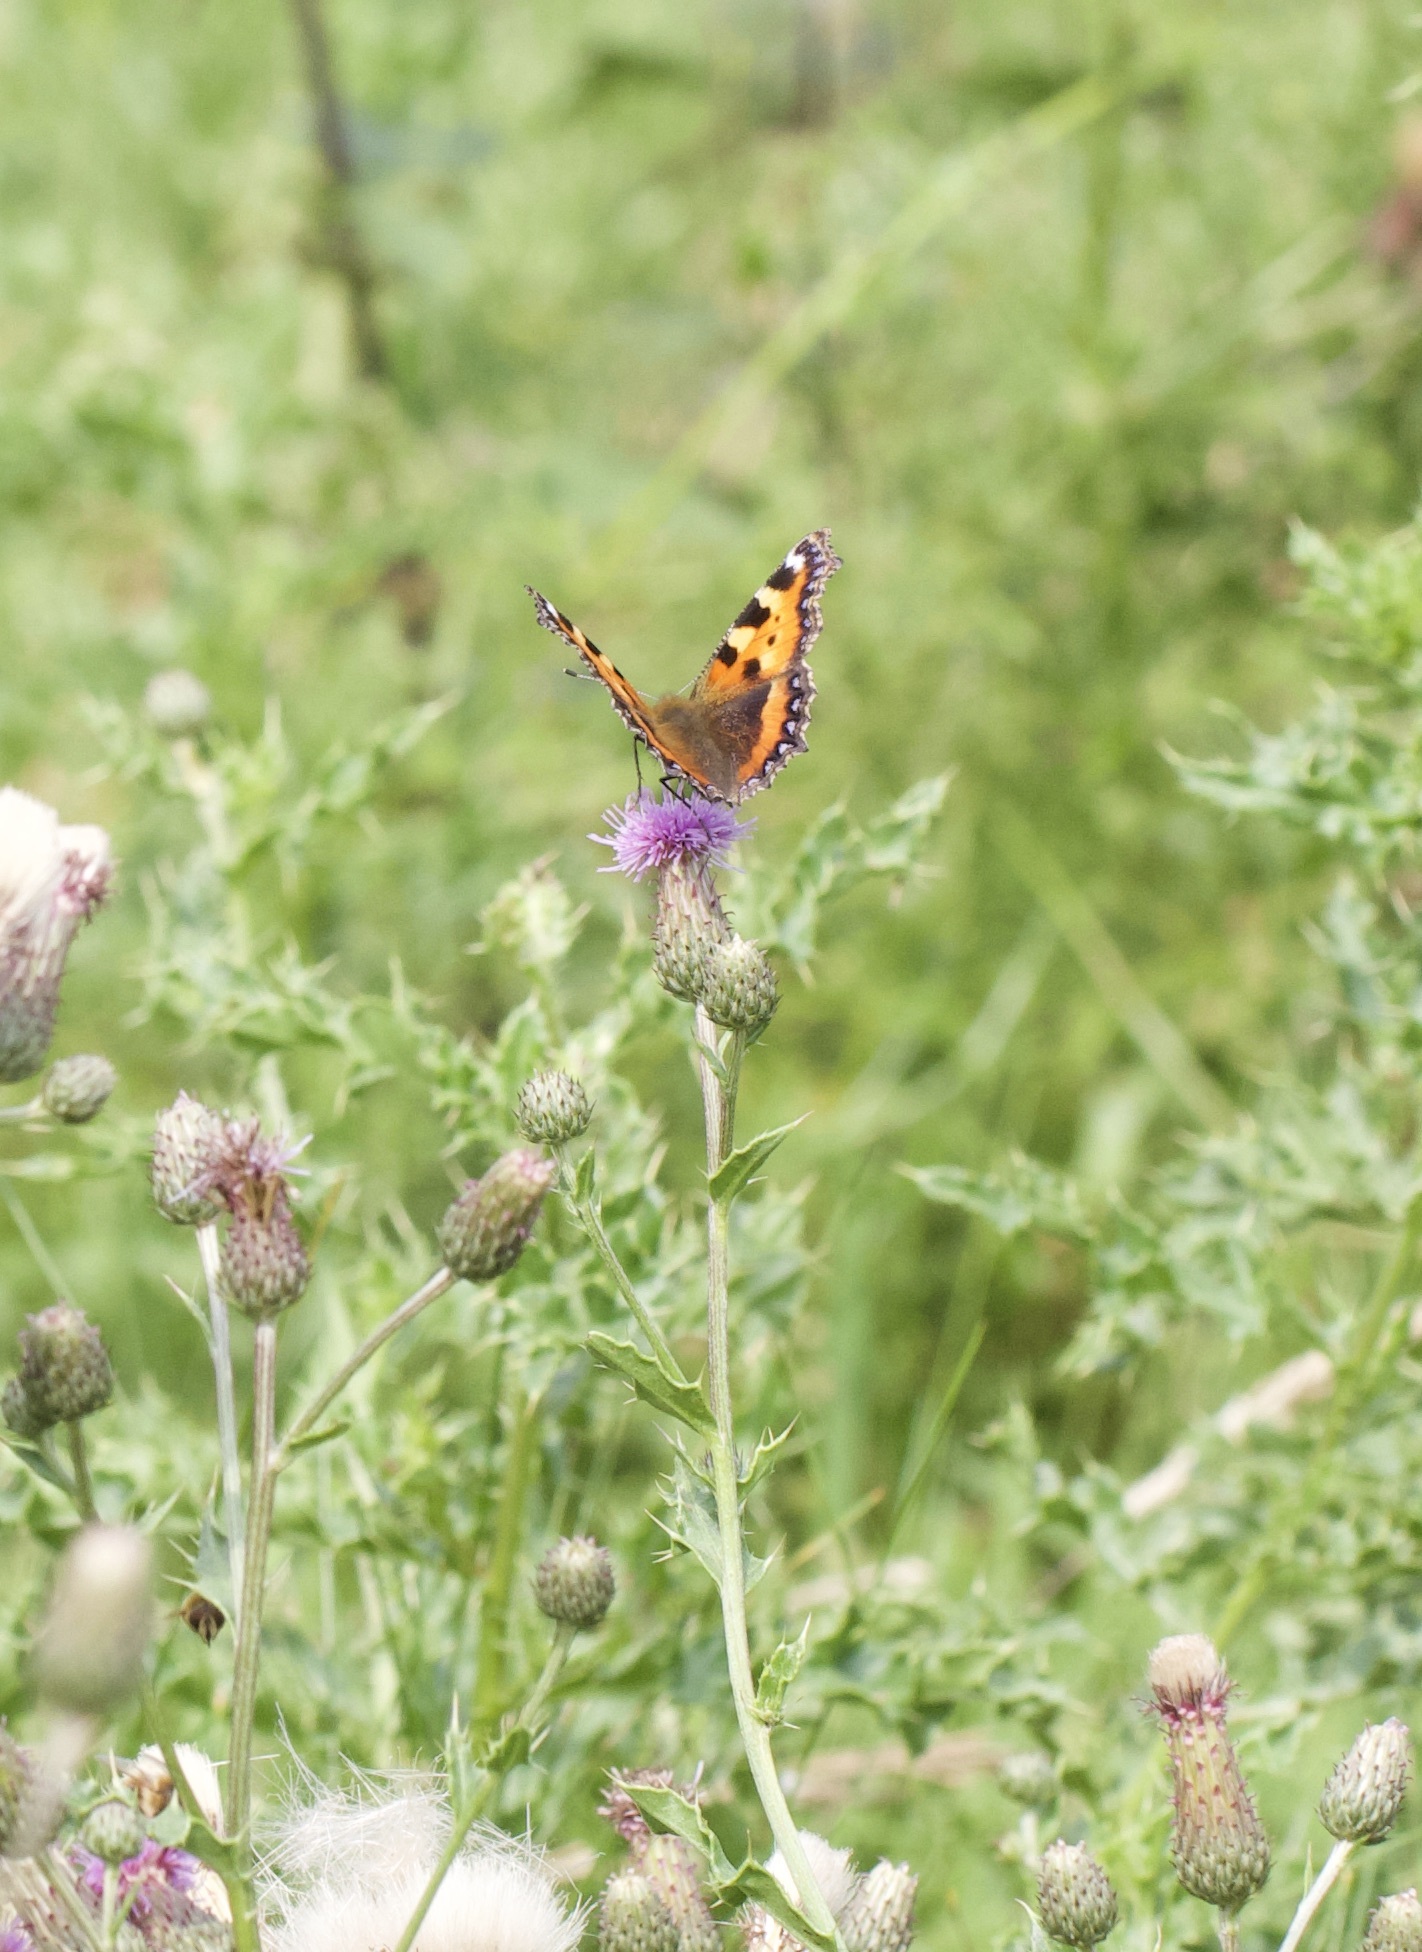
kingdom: Animalia
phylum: Arthropoda
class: Insecta
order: Lepidoptera
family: Nymphalidae
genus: Aglais
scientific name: Aglais urticae
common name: Small tortoiseshell
